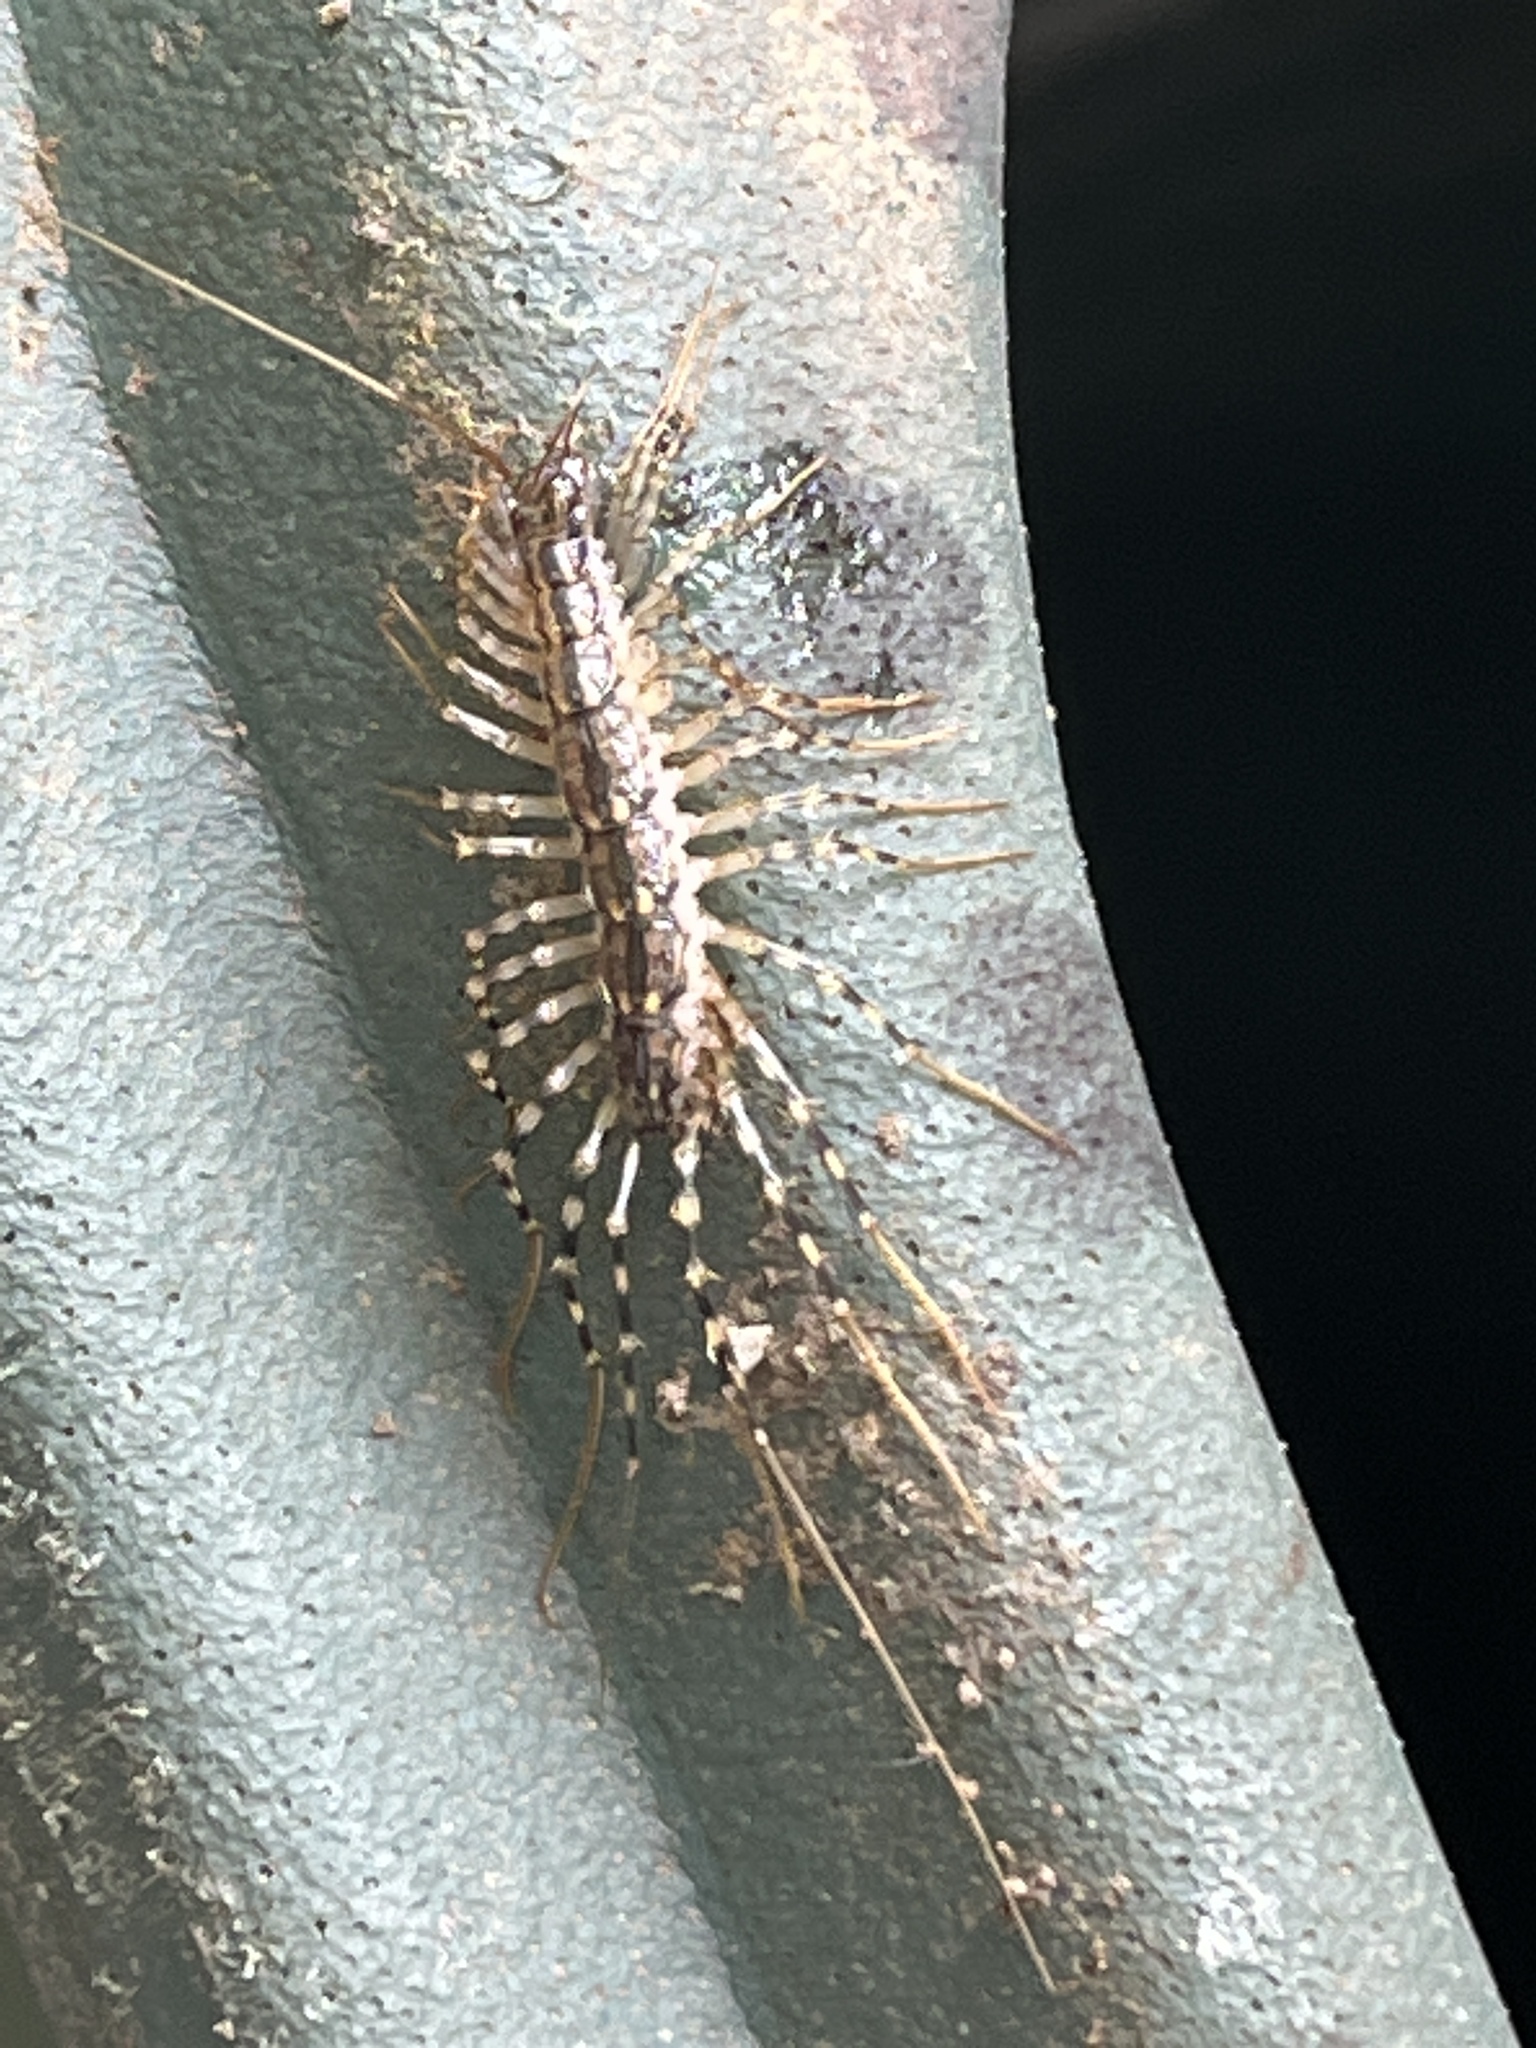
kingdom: Animalia
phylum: Arthropoda
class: Chilopoda
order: Scutigeromorpha
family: Scutigeridae
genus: Thereuonema
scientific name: Thereuonema tuberculata
